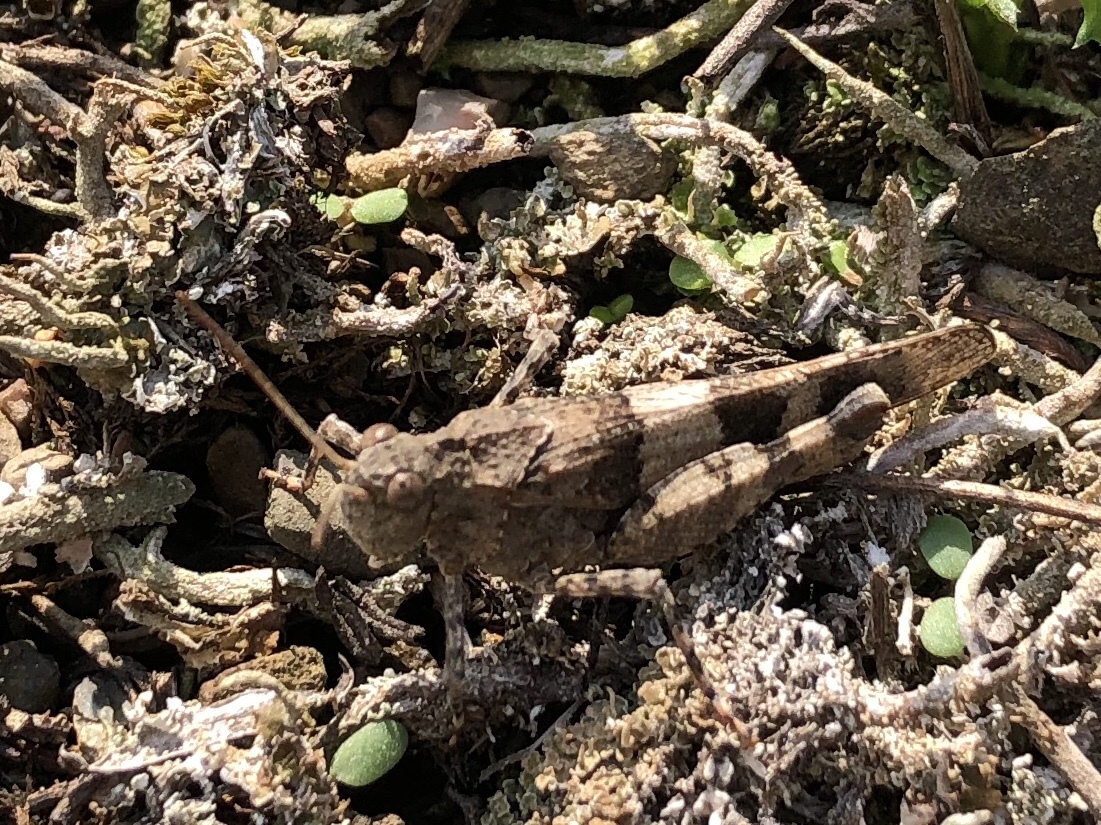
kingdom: Animalia
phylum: Arthropoda
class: Insecta
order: Orthoptera
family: Acrididae
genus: Oedipoda
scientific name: Oedipoda caerulescens
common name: Blue-winged grasshopper
